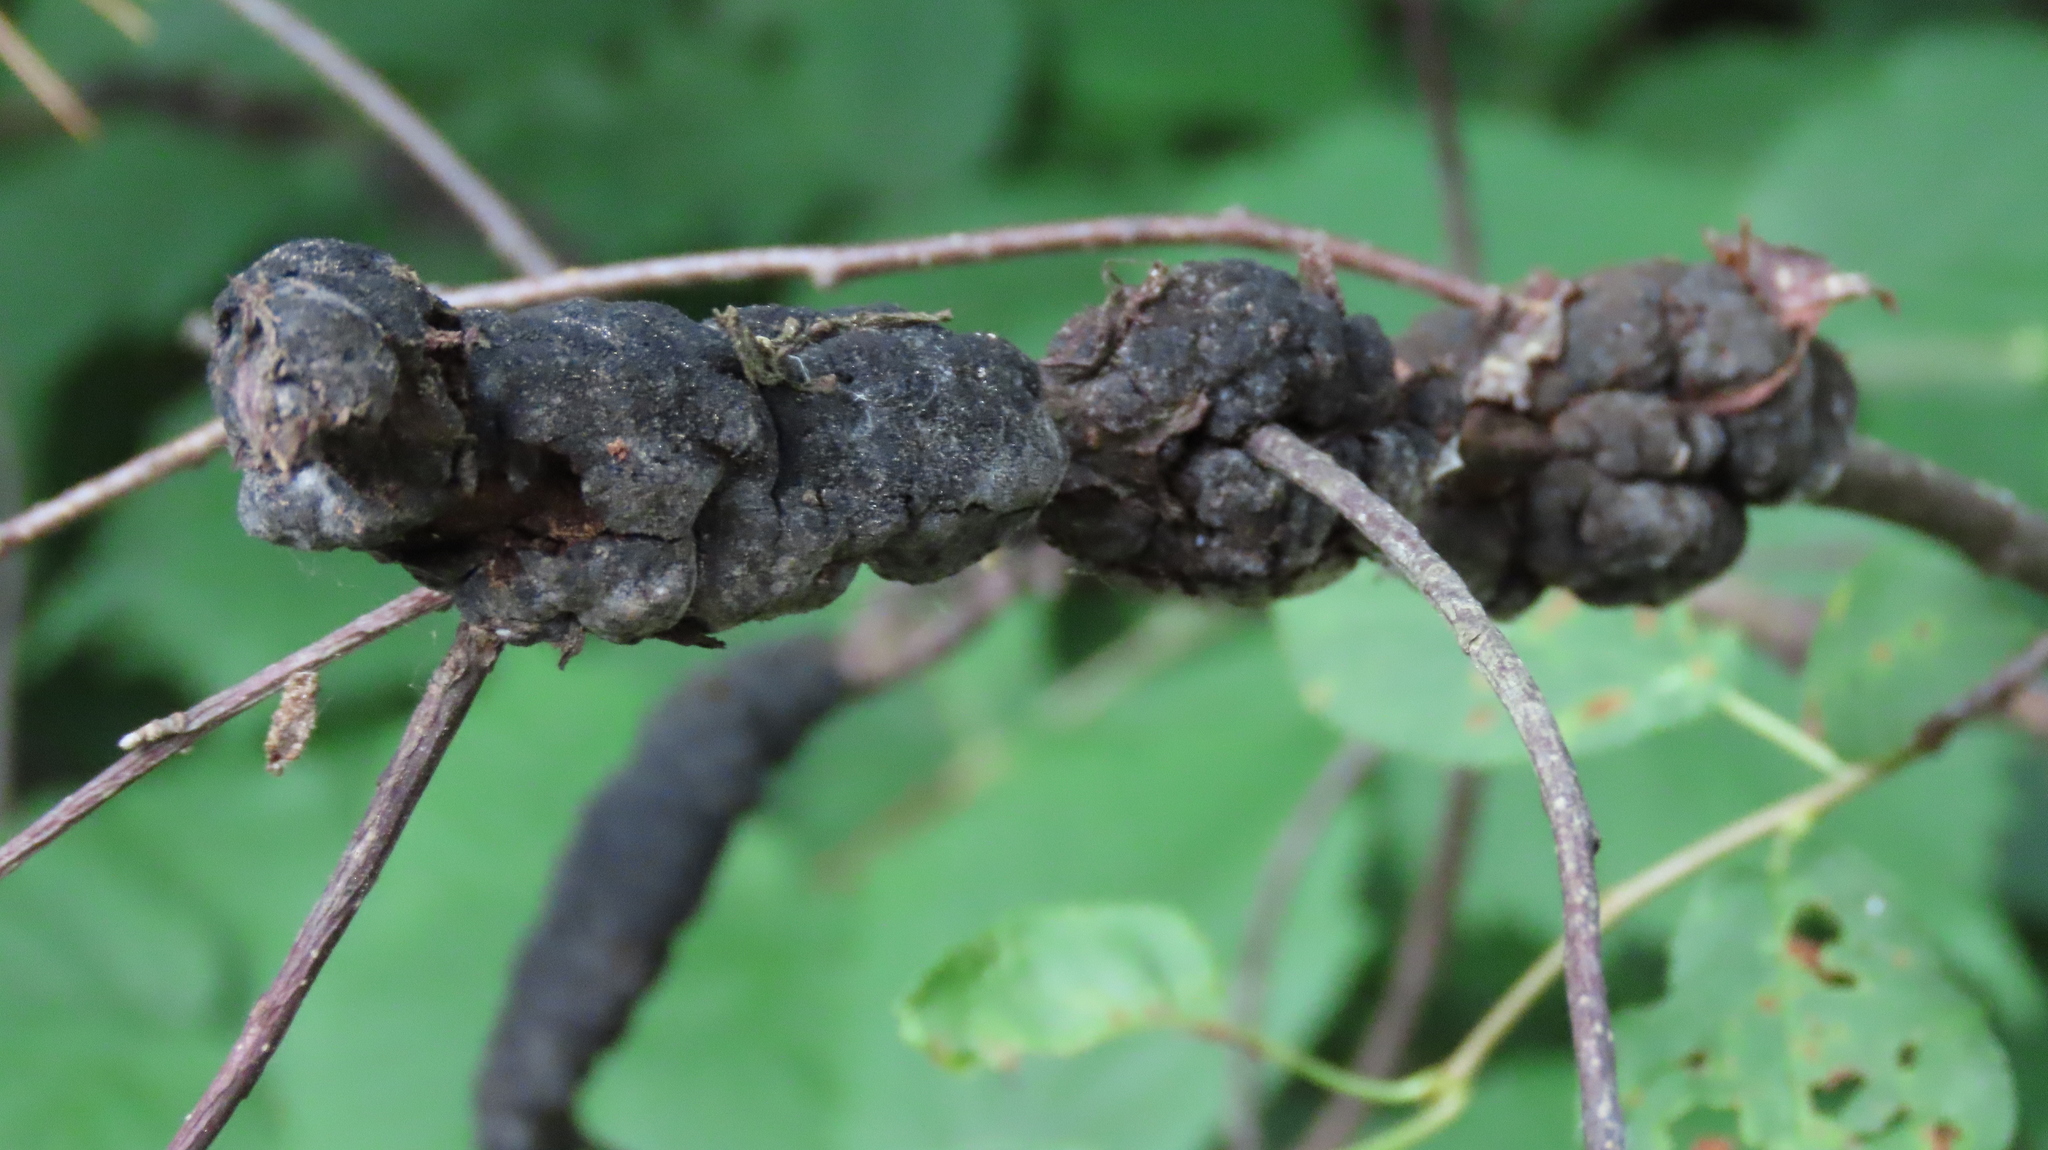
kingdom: Fungi
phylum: Ascomycota
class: Dothideomycetes
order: Venturiales
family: Venturiaceae
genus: Apiosporina
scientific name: Apiosporina morbosa
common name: Black knot
